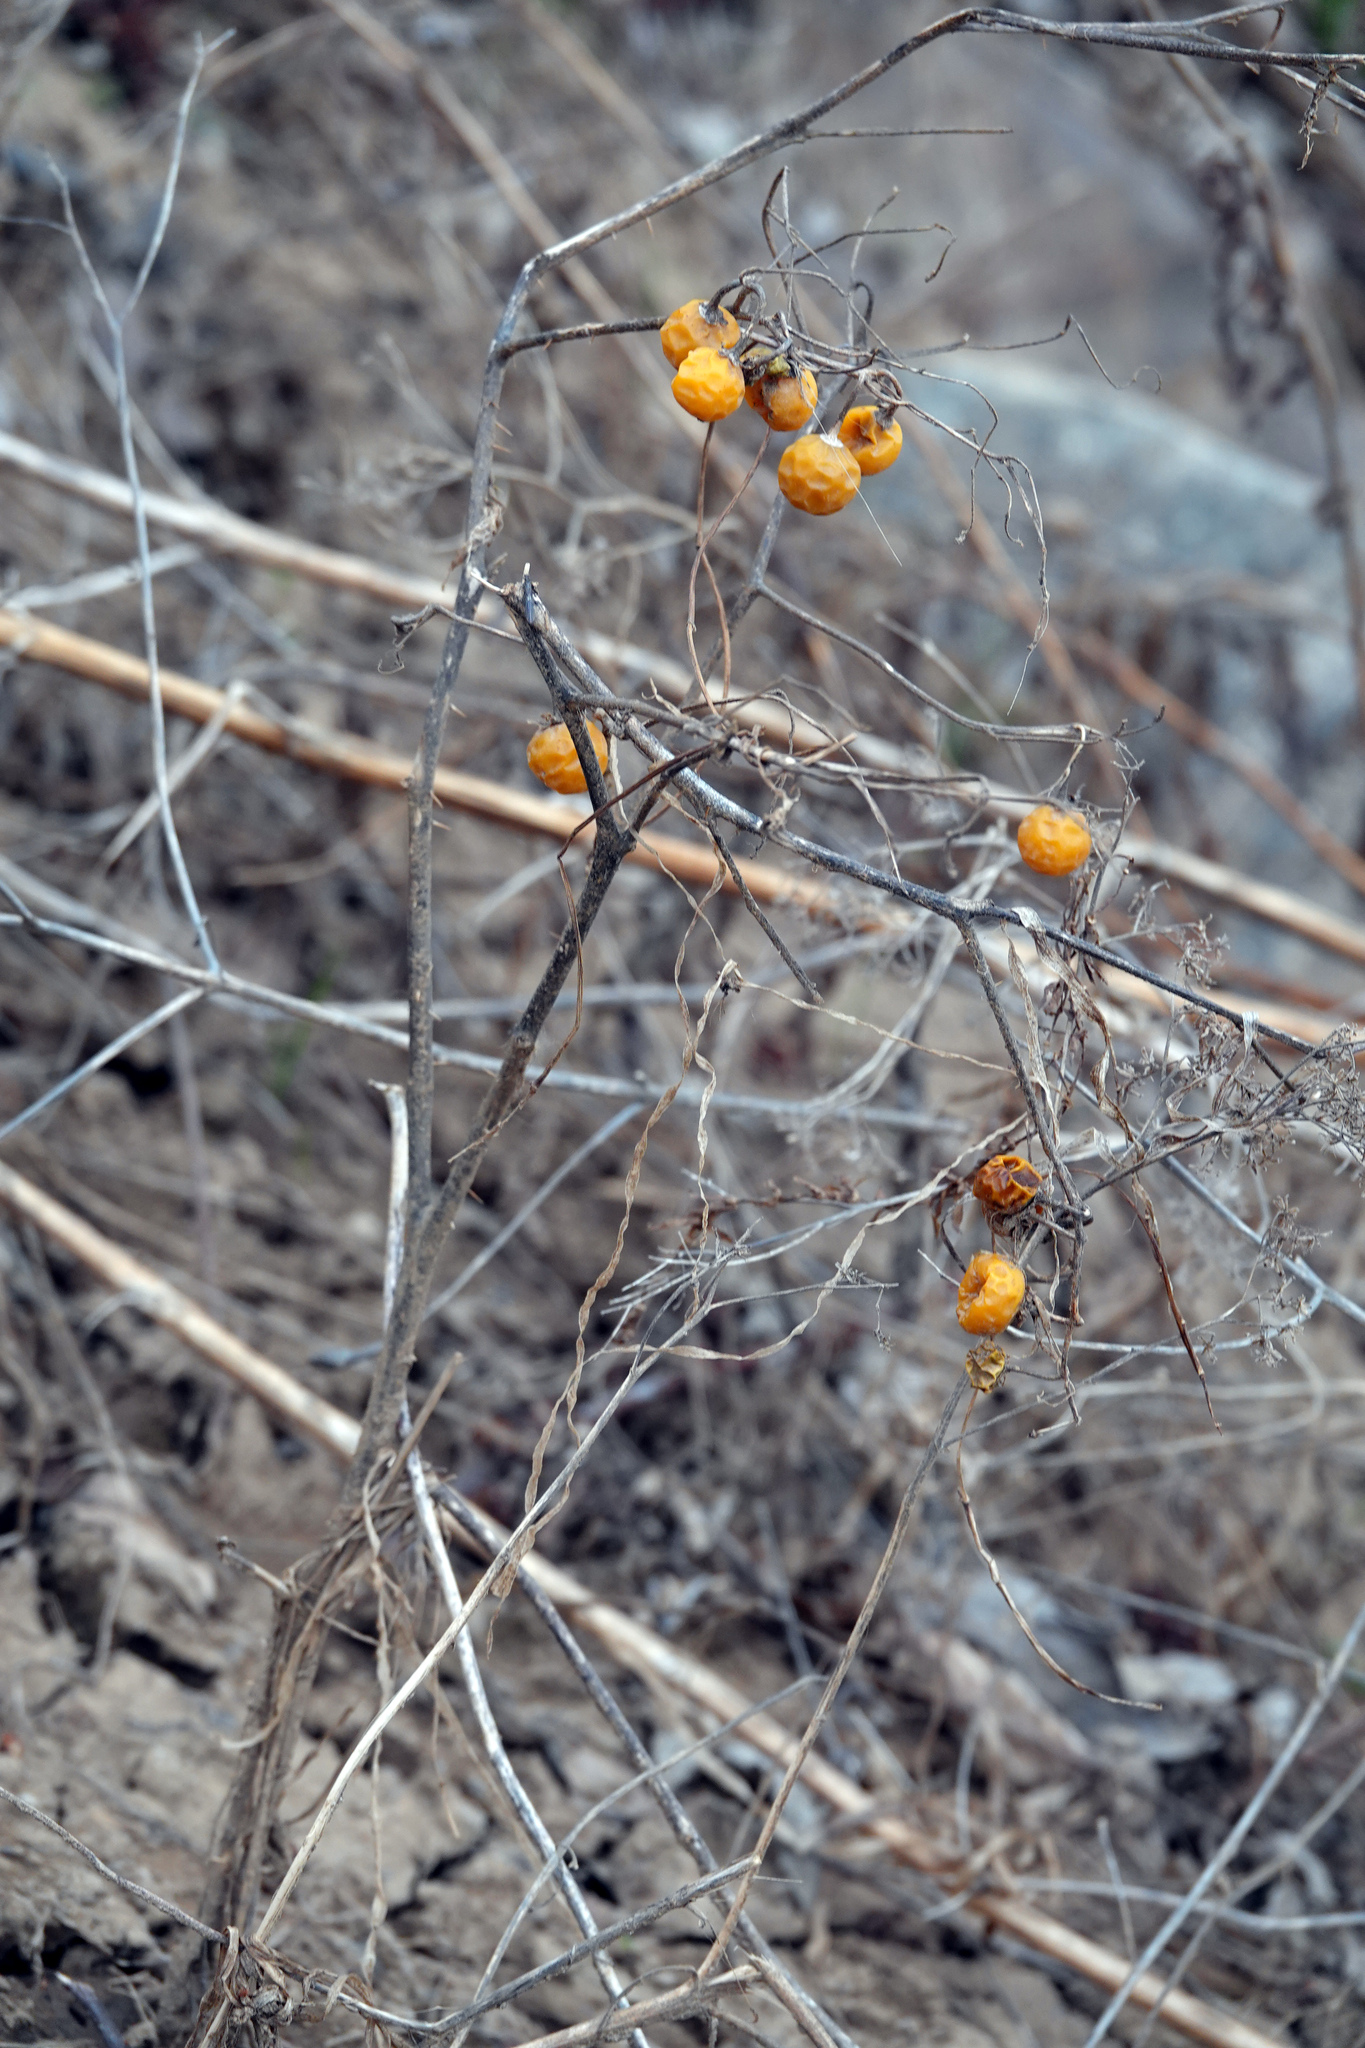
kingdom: Plantae
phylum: Tracheophyta
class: Magnoliopsida
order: Solanales
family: Solanaceae
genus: Solanum
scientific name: Solanum carolinense
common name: Horse-nettle
